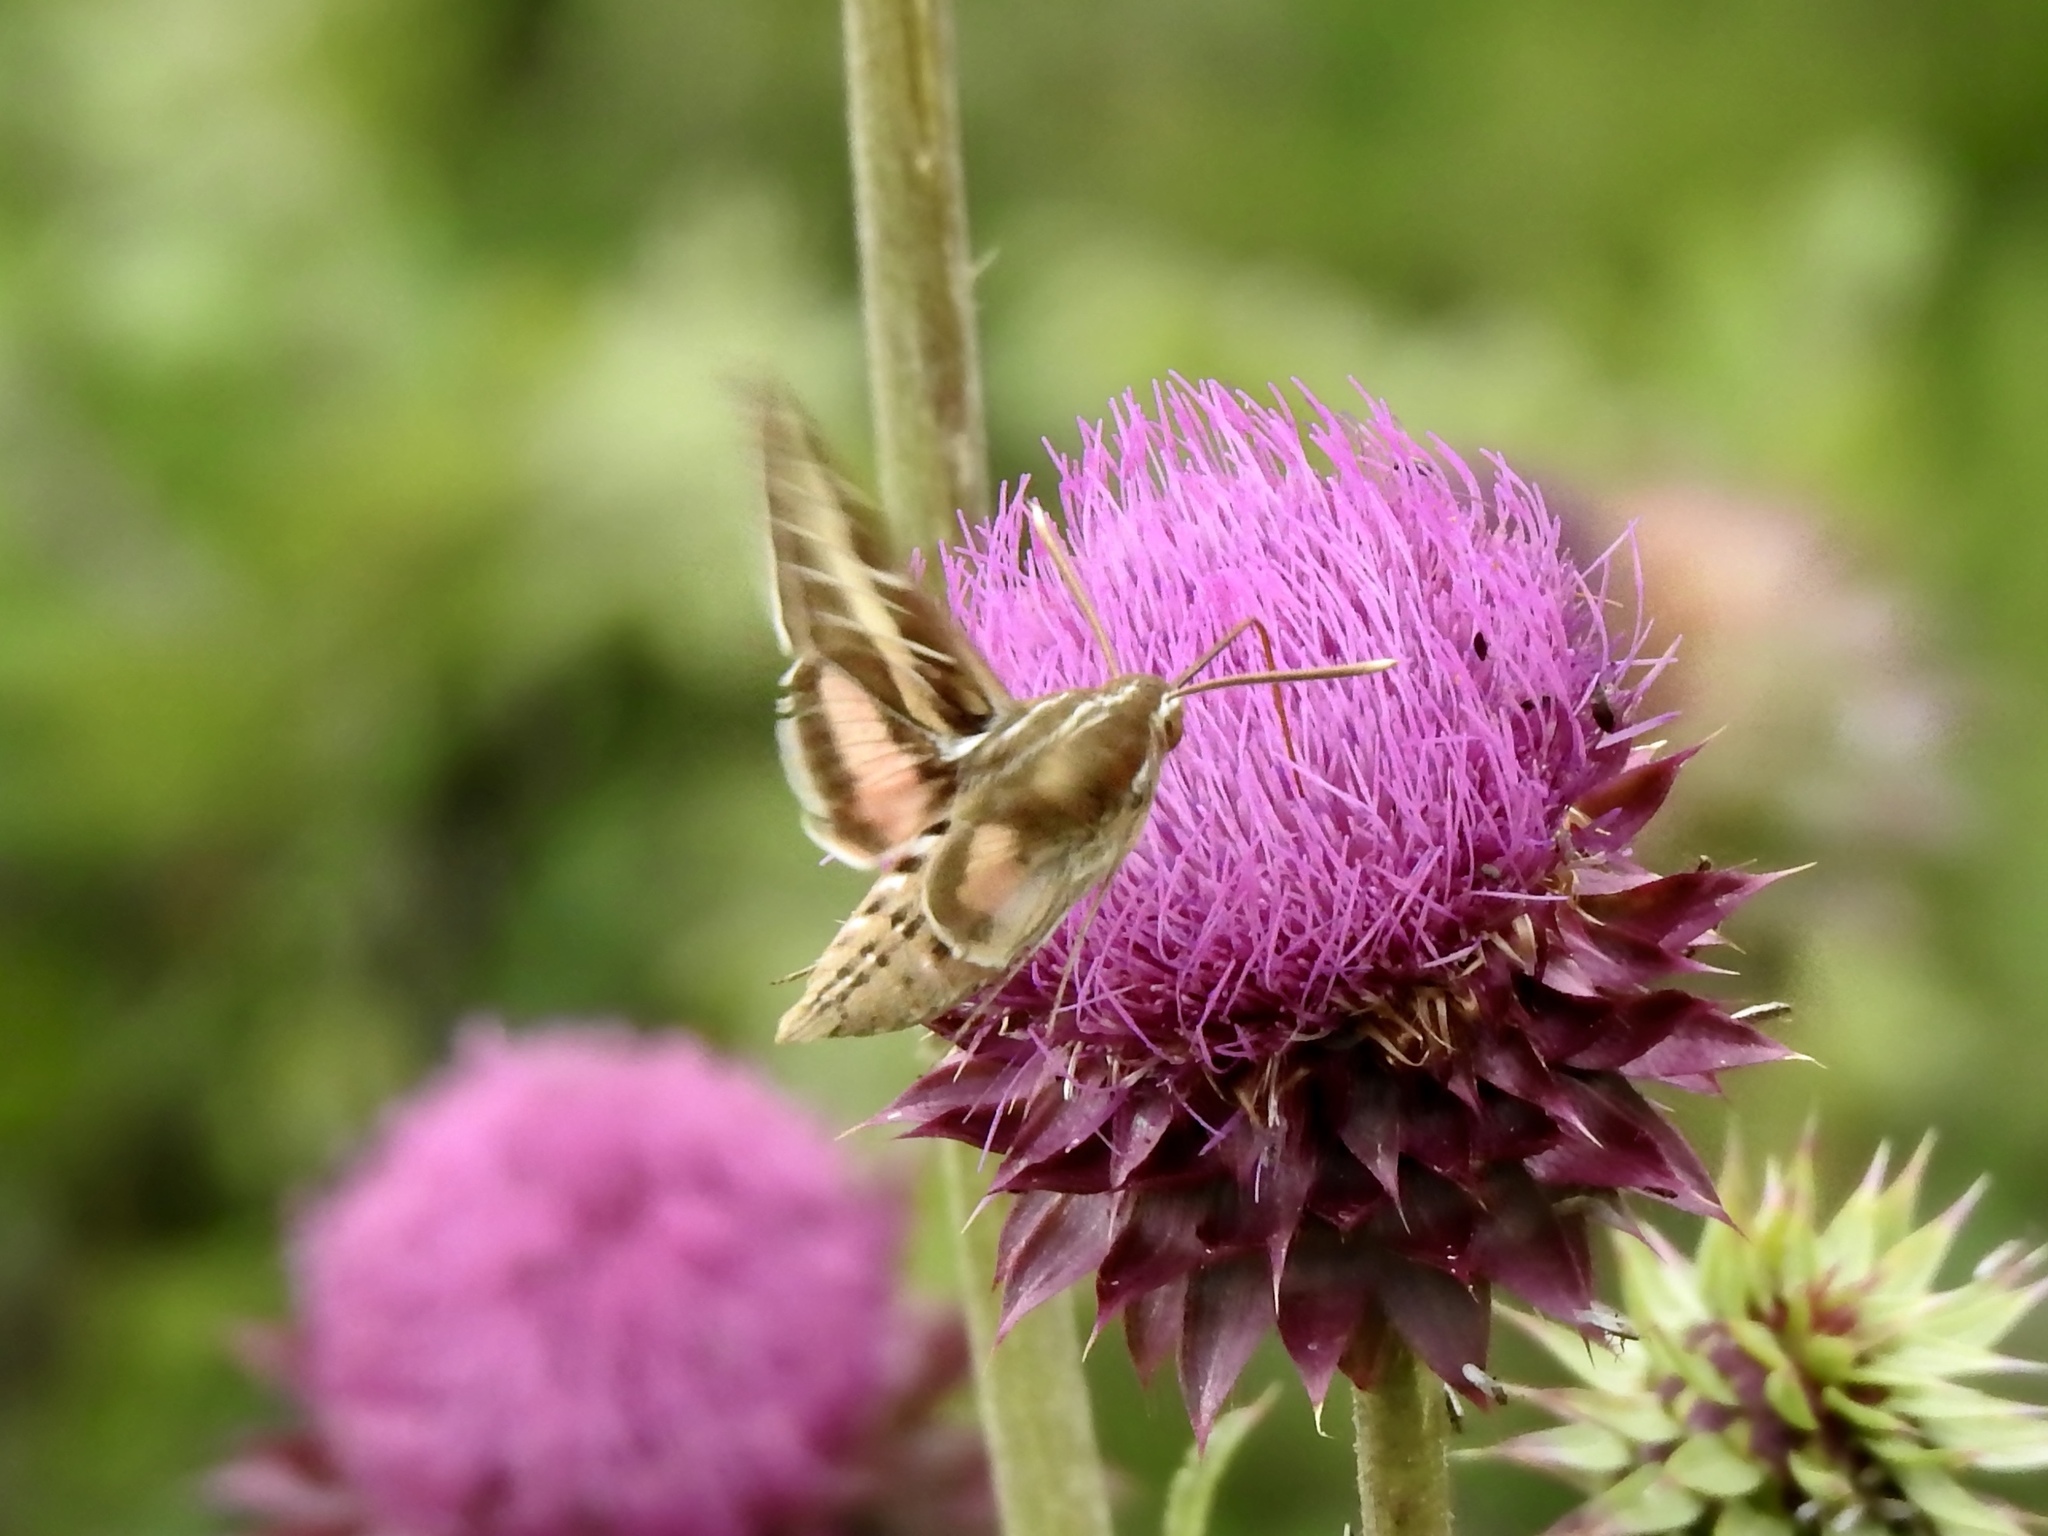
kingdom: Animalia
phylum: Arthropoda
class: Insecta
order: Lepidoptera
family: Sphingidae
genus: Hyles
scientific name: Hyles lineata
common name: White-lined sphinx
